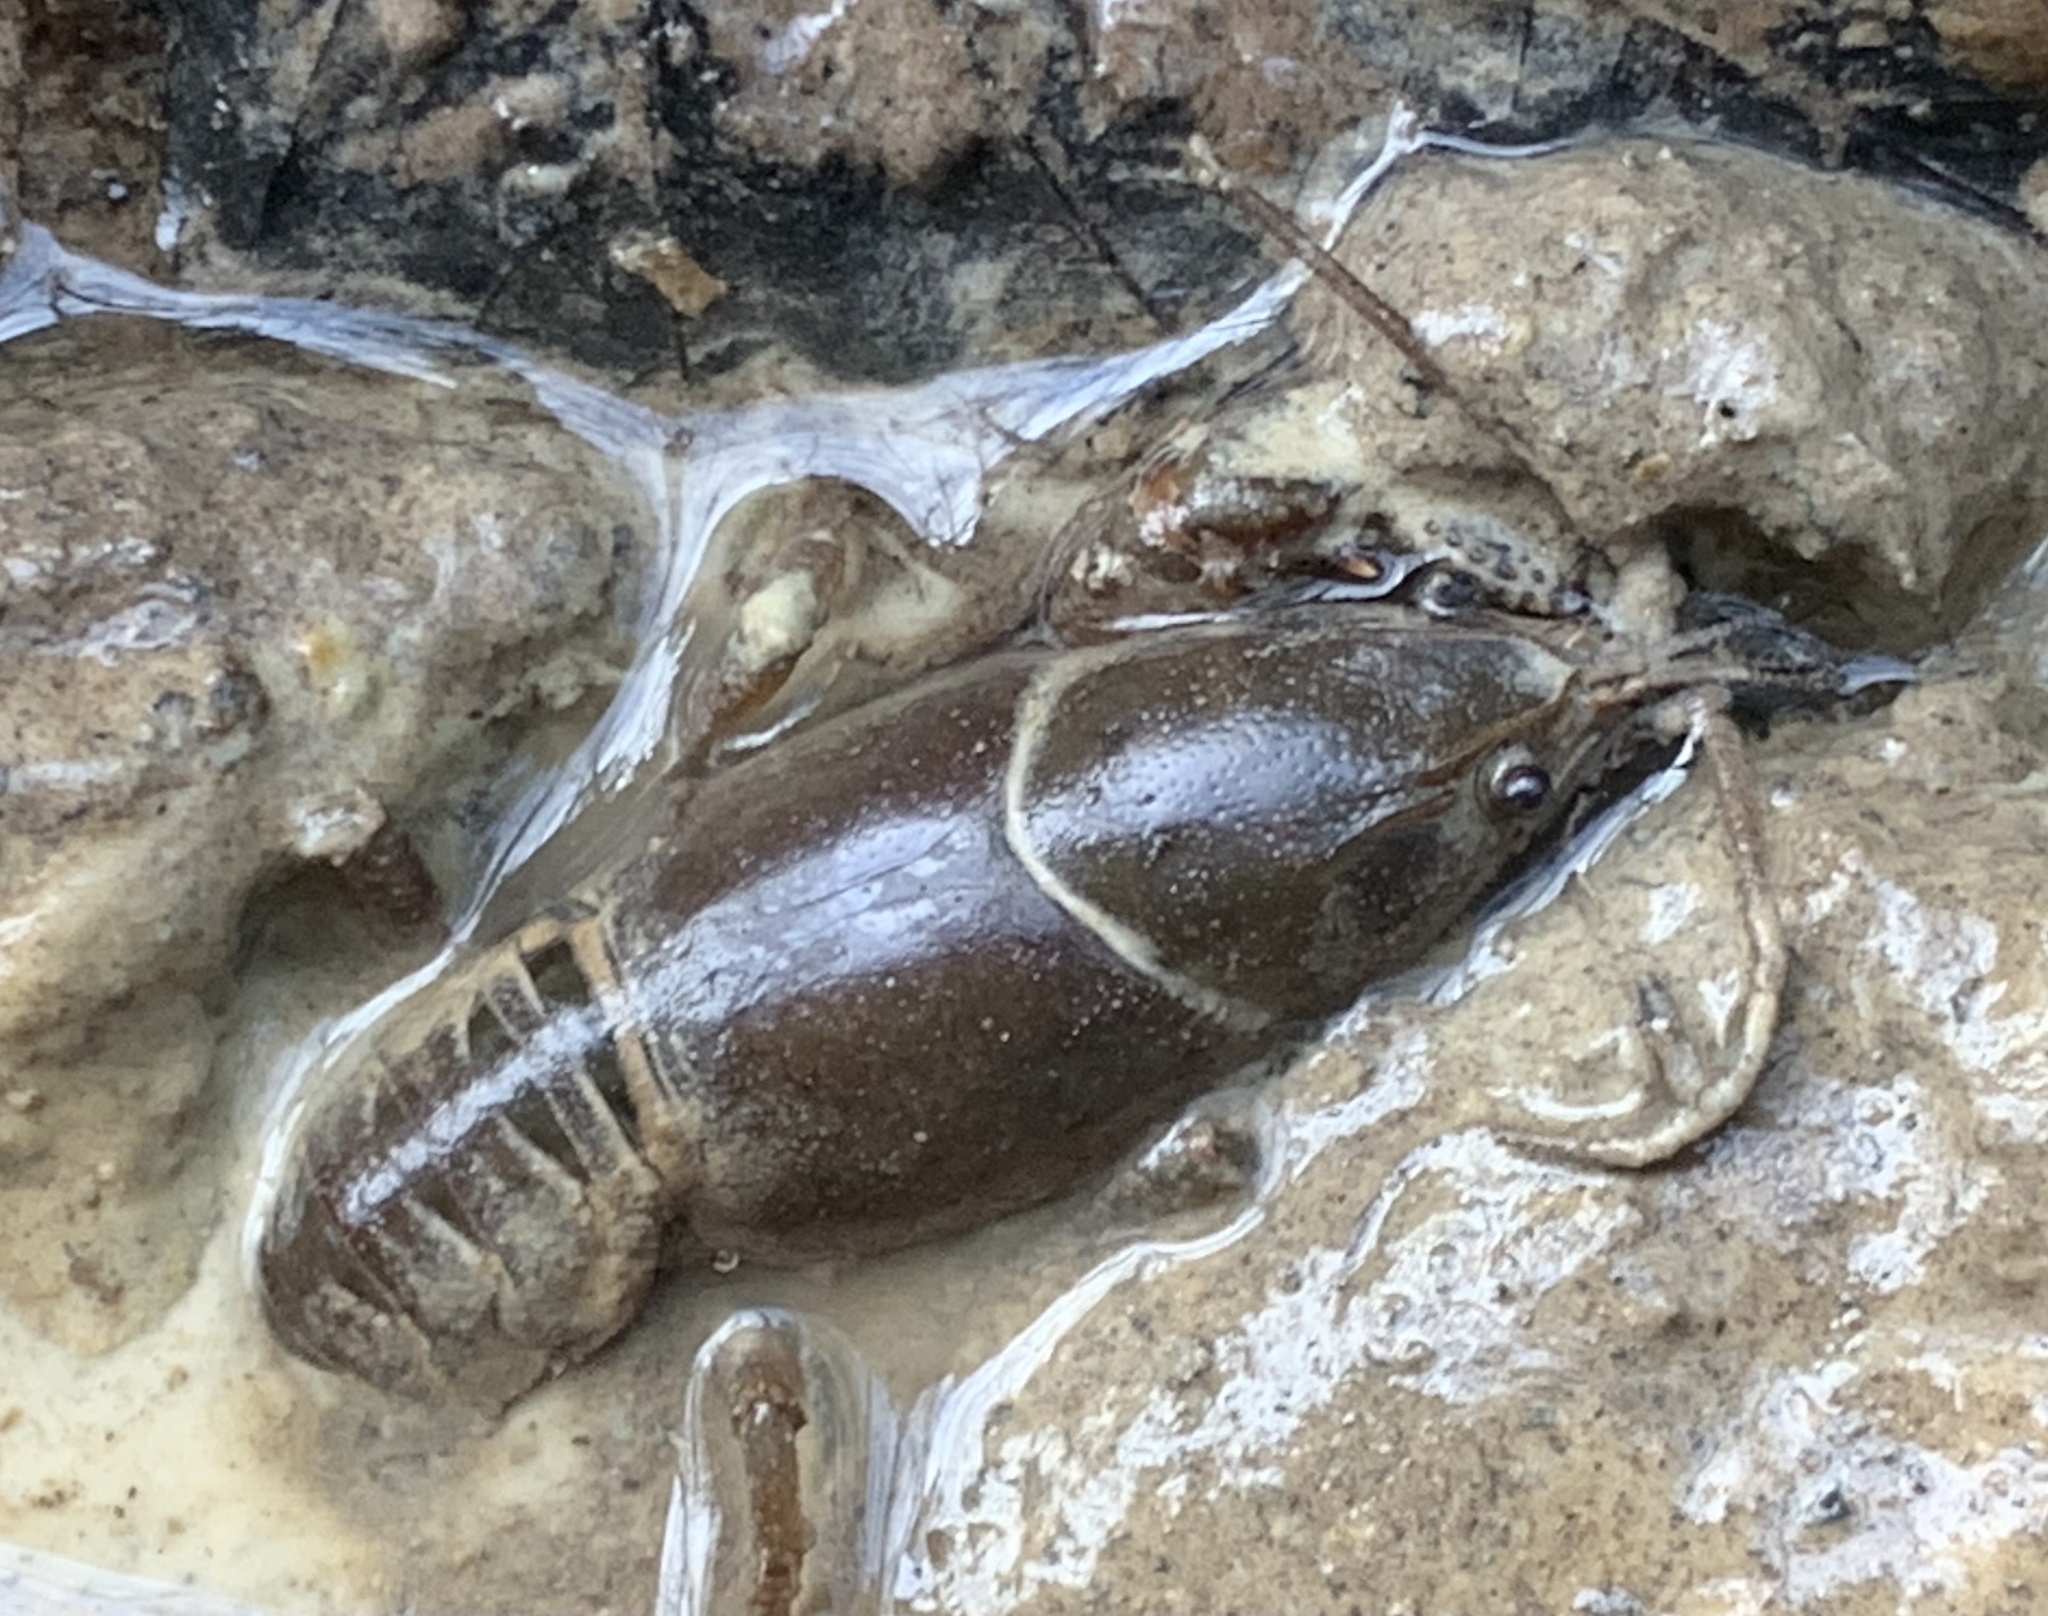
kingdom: Animalia
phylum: Arthropoda
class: Malacostraca
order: Decapoda
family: Cambaridae
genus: Cambarus
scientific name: Cambarus reduncus
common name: Sickle crayfish
